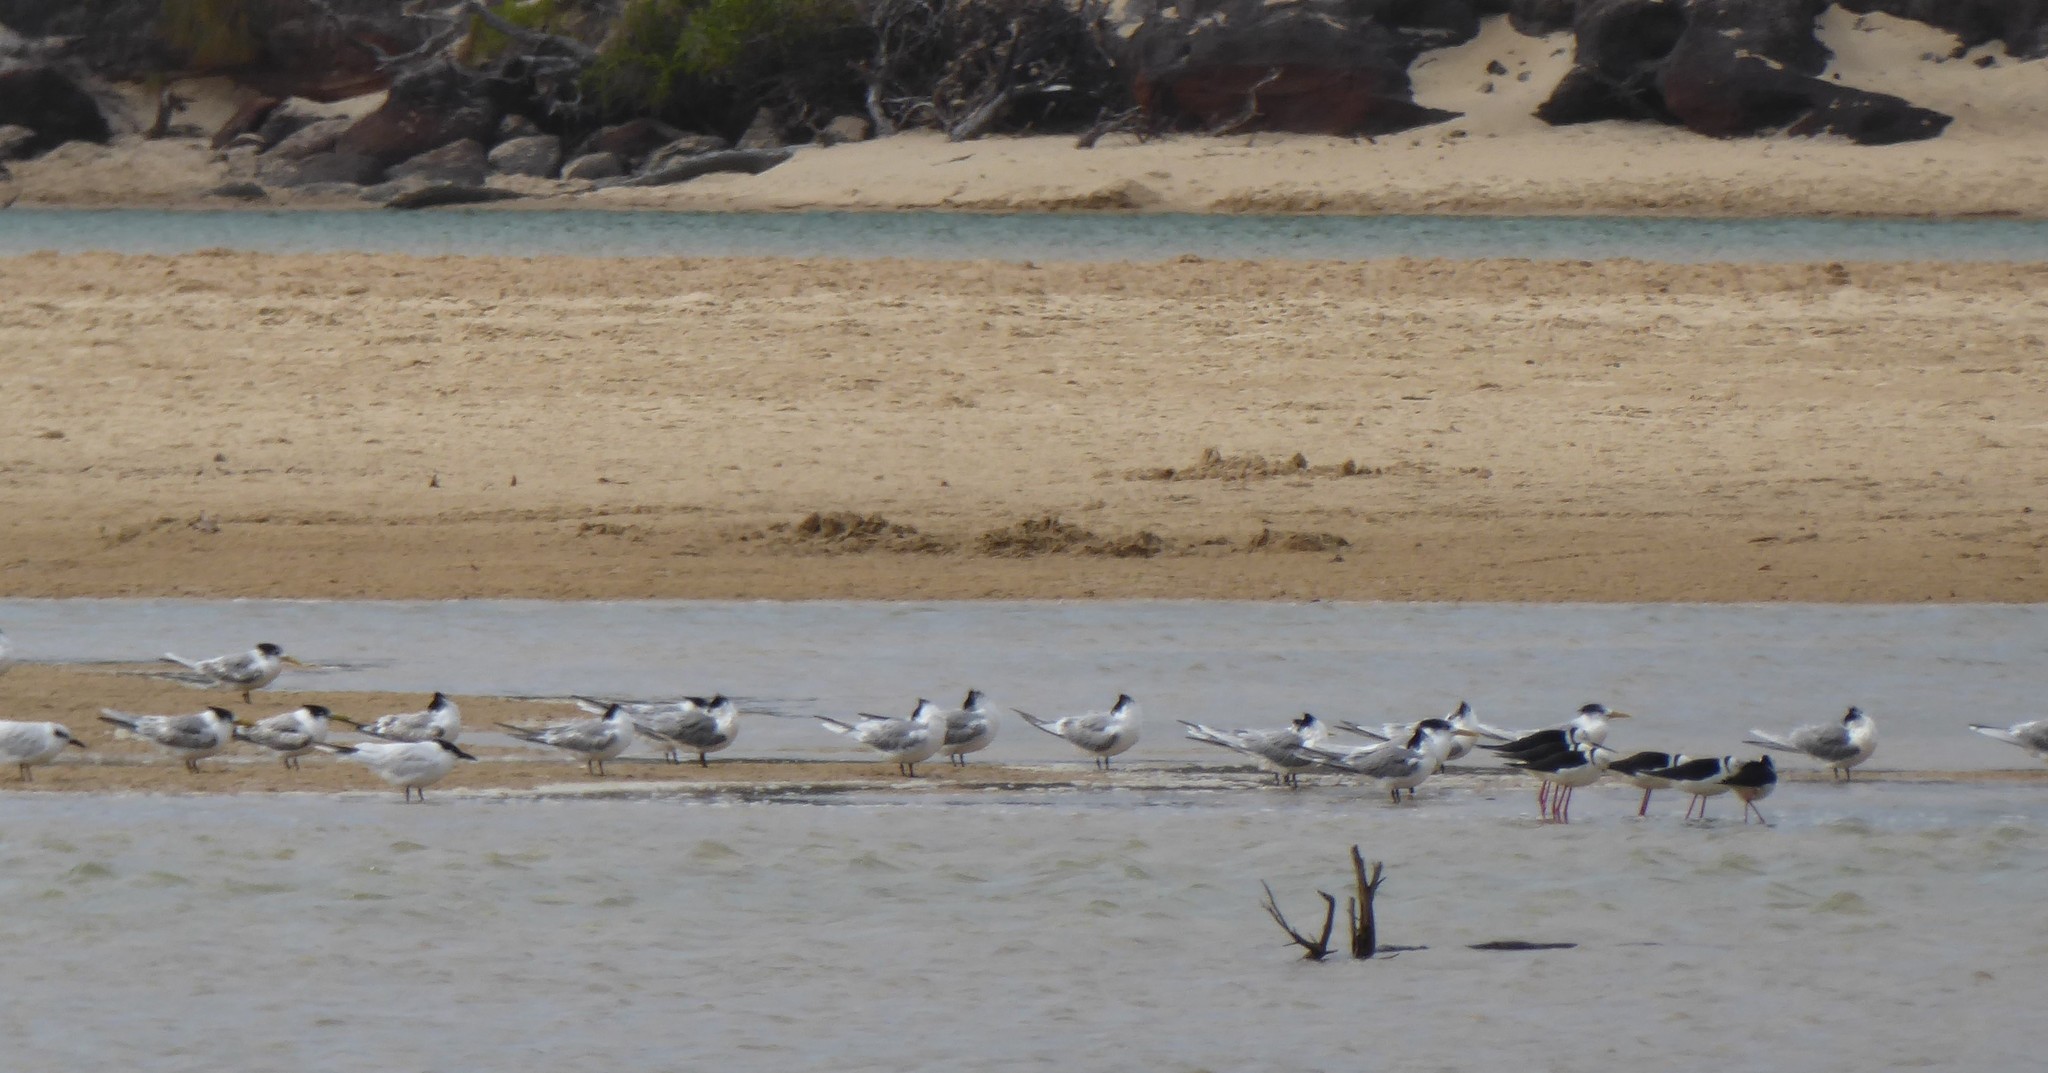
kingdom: Animalia
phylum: Chordata
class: Aves
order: Charadriiformes
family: Laridae
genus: Gelochelidon
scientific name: Gelochelidon macrotarsa
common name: Australian tern
